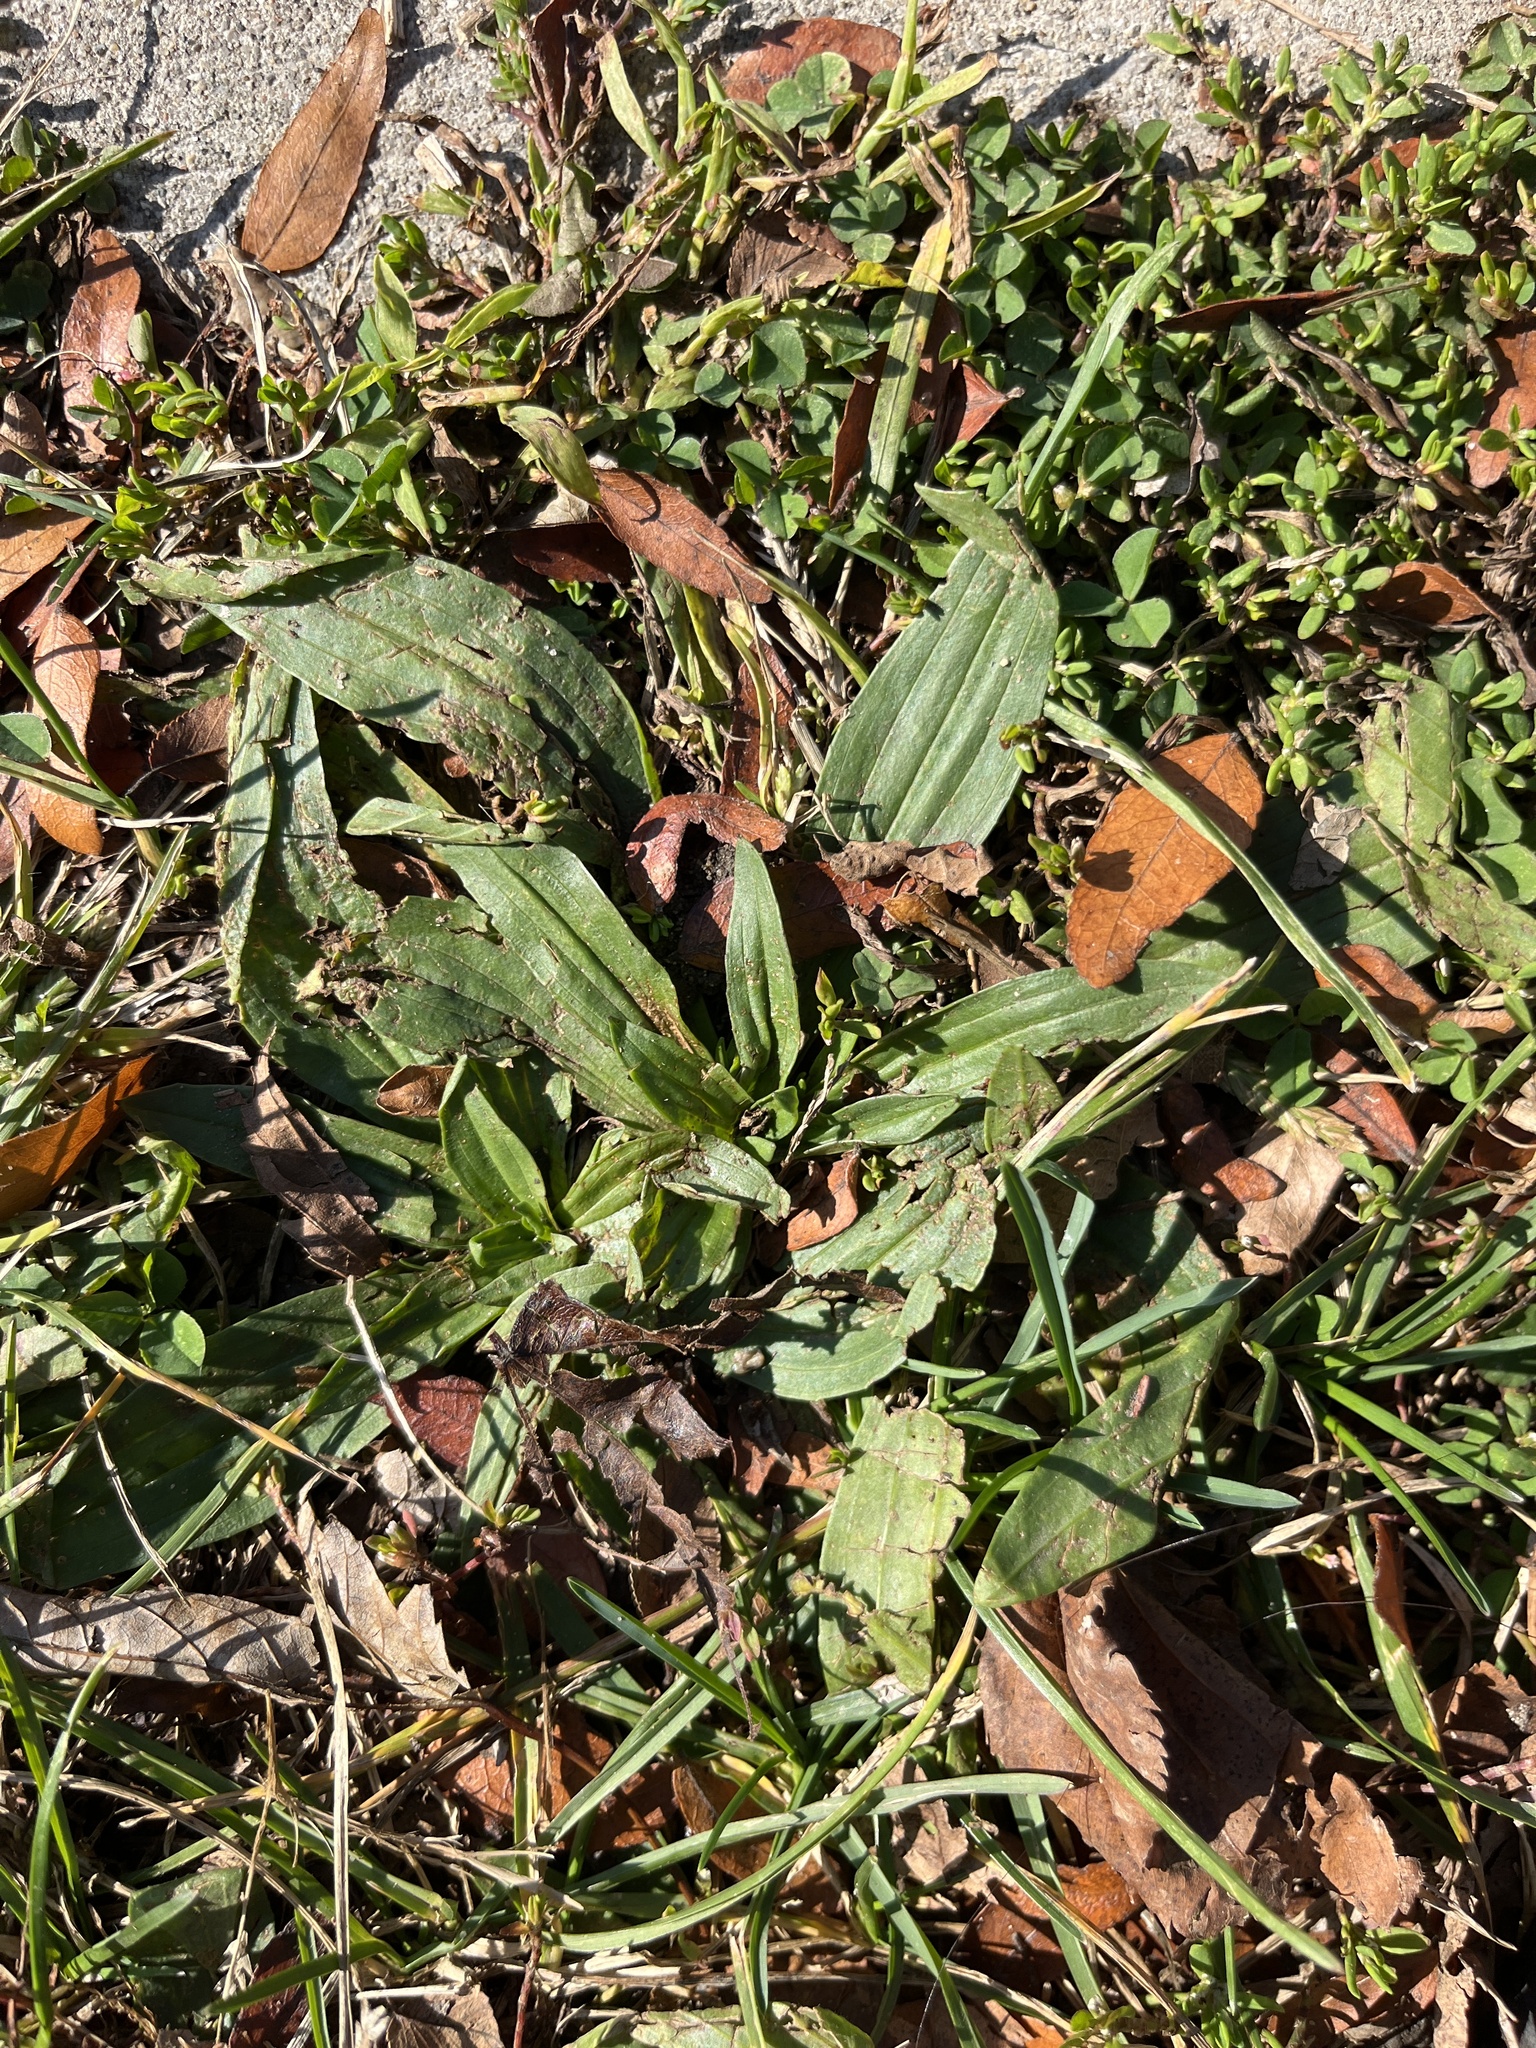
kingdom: Plantae
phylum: Tracheophyta
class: Magnoliopsida
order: Lamiales
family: Plantaginaceae
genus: Plantago
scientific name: Plantago lanceolata
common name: Ribwort plantain
